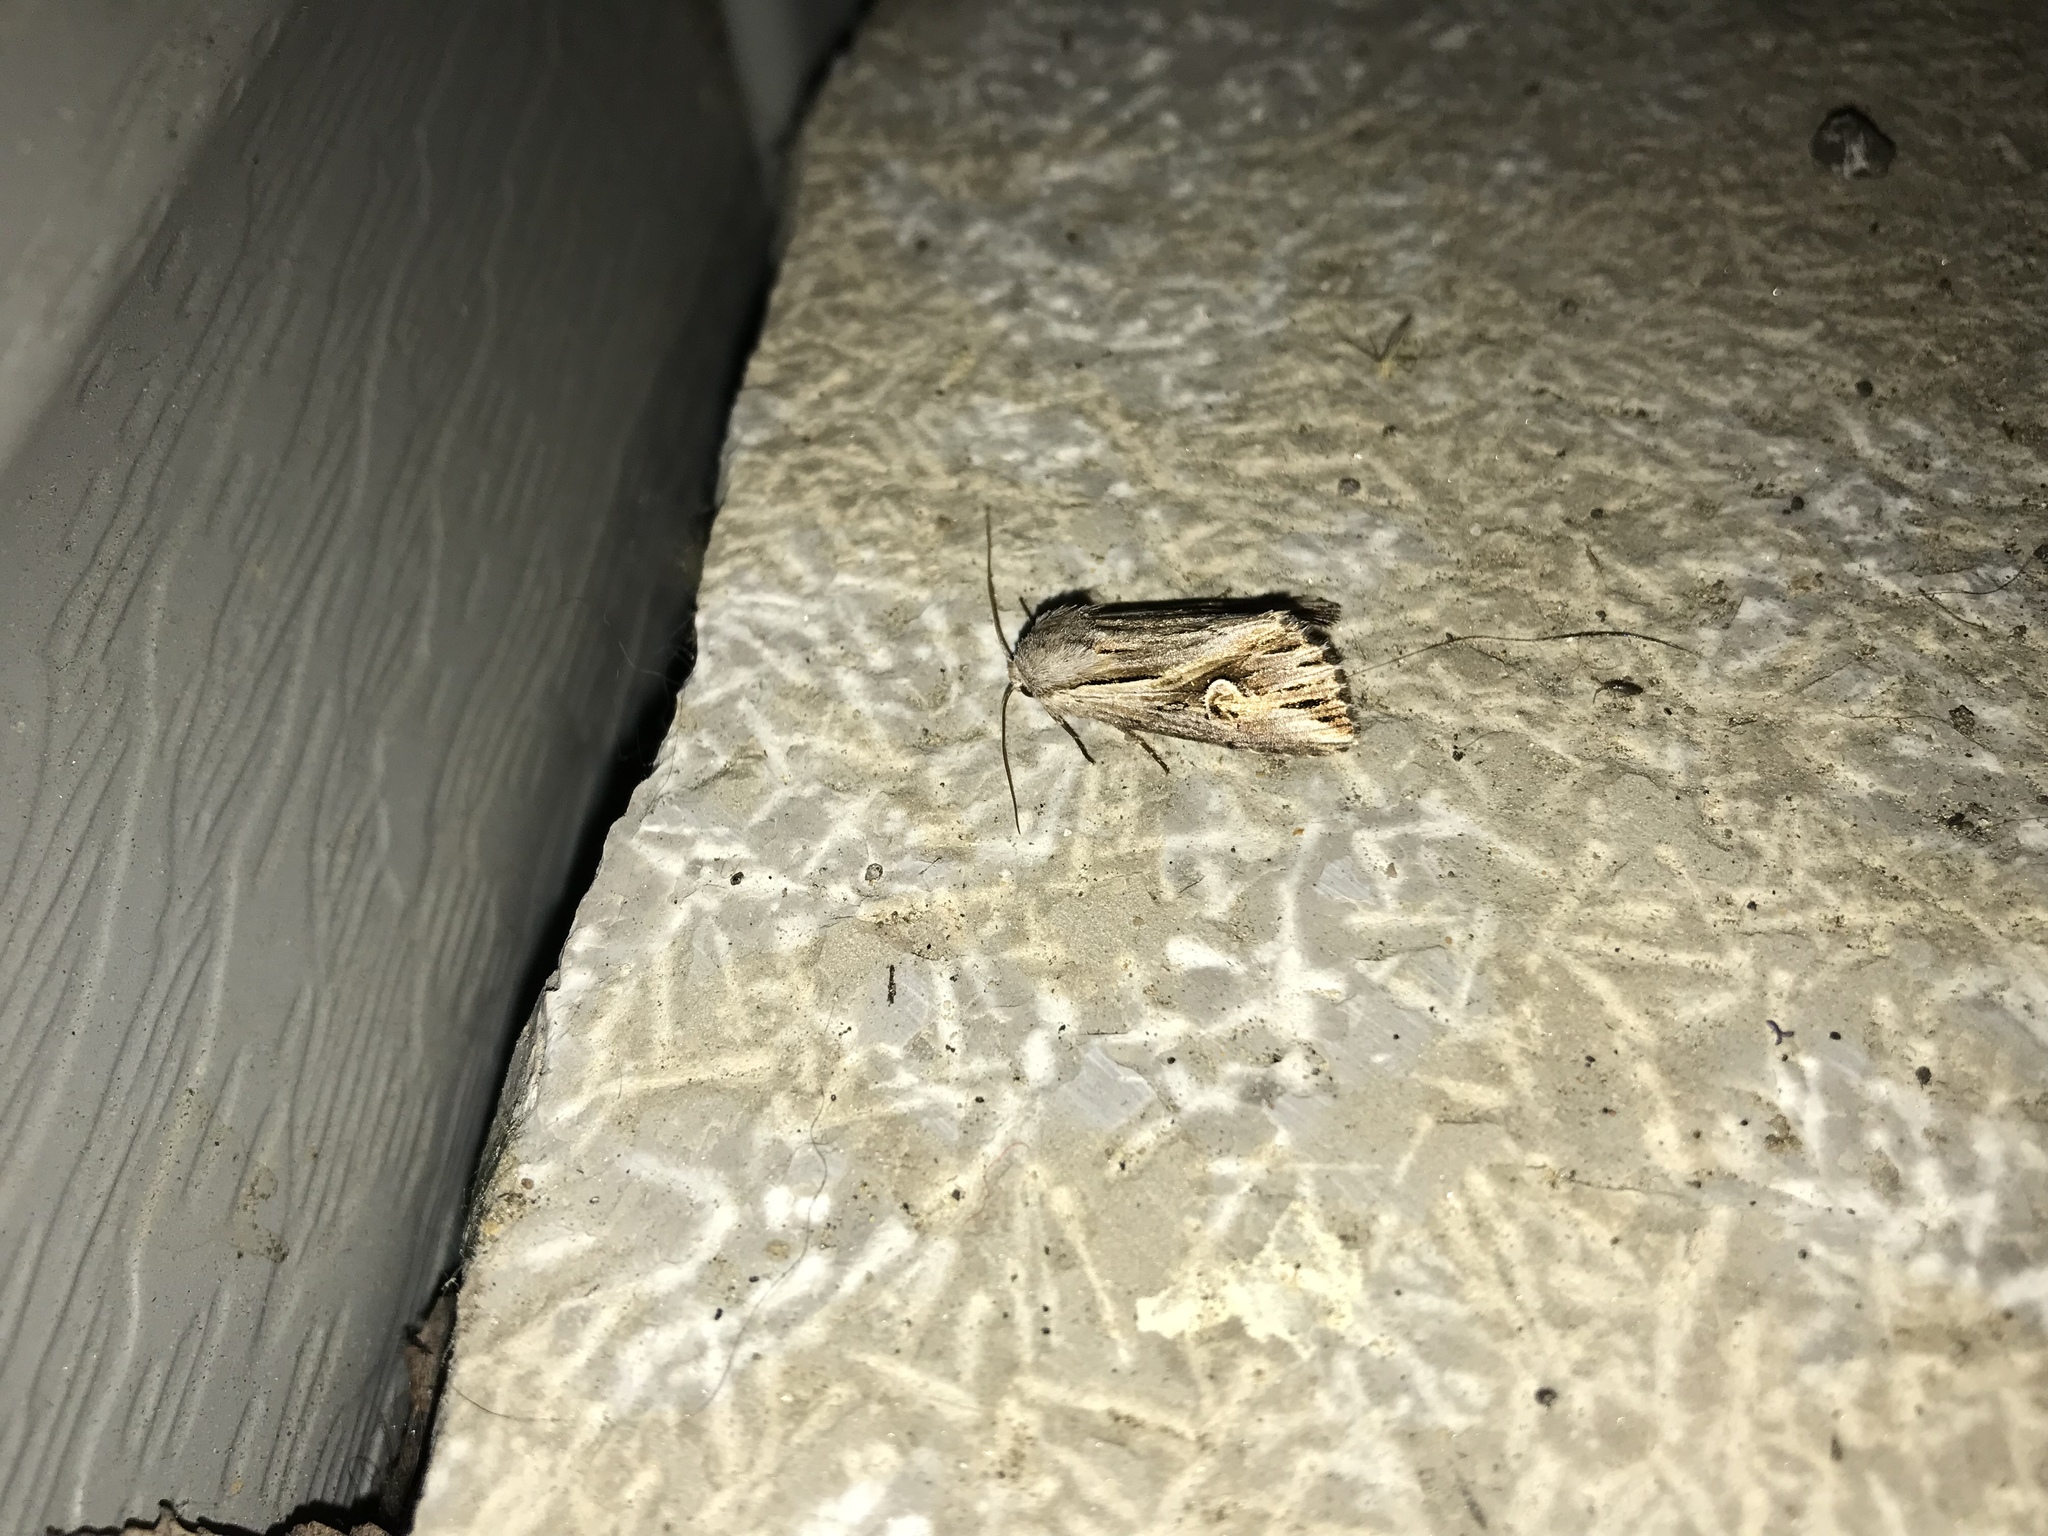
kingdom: Animalia
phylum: Arthropoda
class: Insecta
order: Lepidoptera
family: Noctuidae
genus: Nedra
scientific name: Nedra ramosula
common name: Gray half-spot
